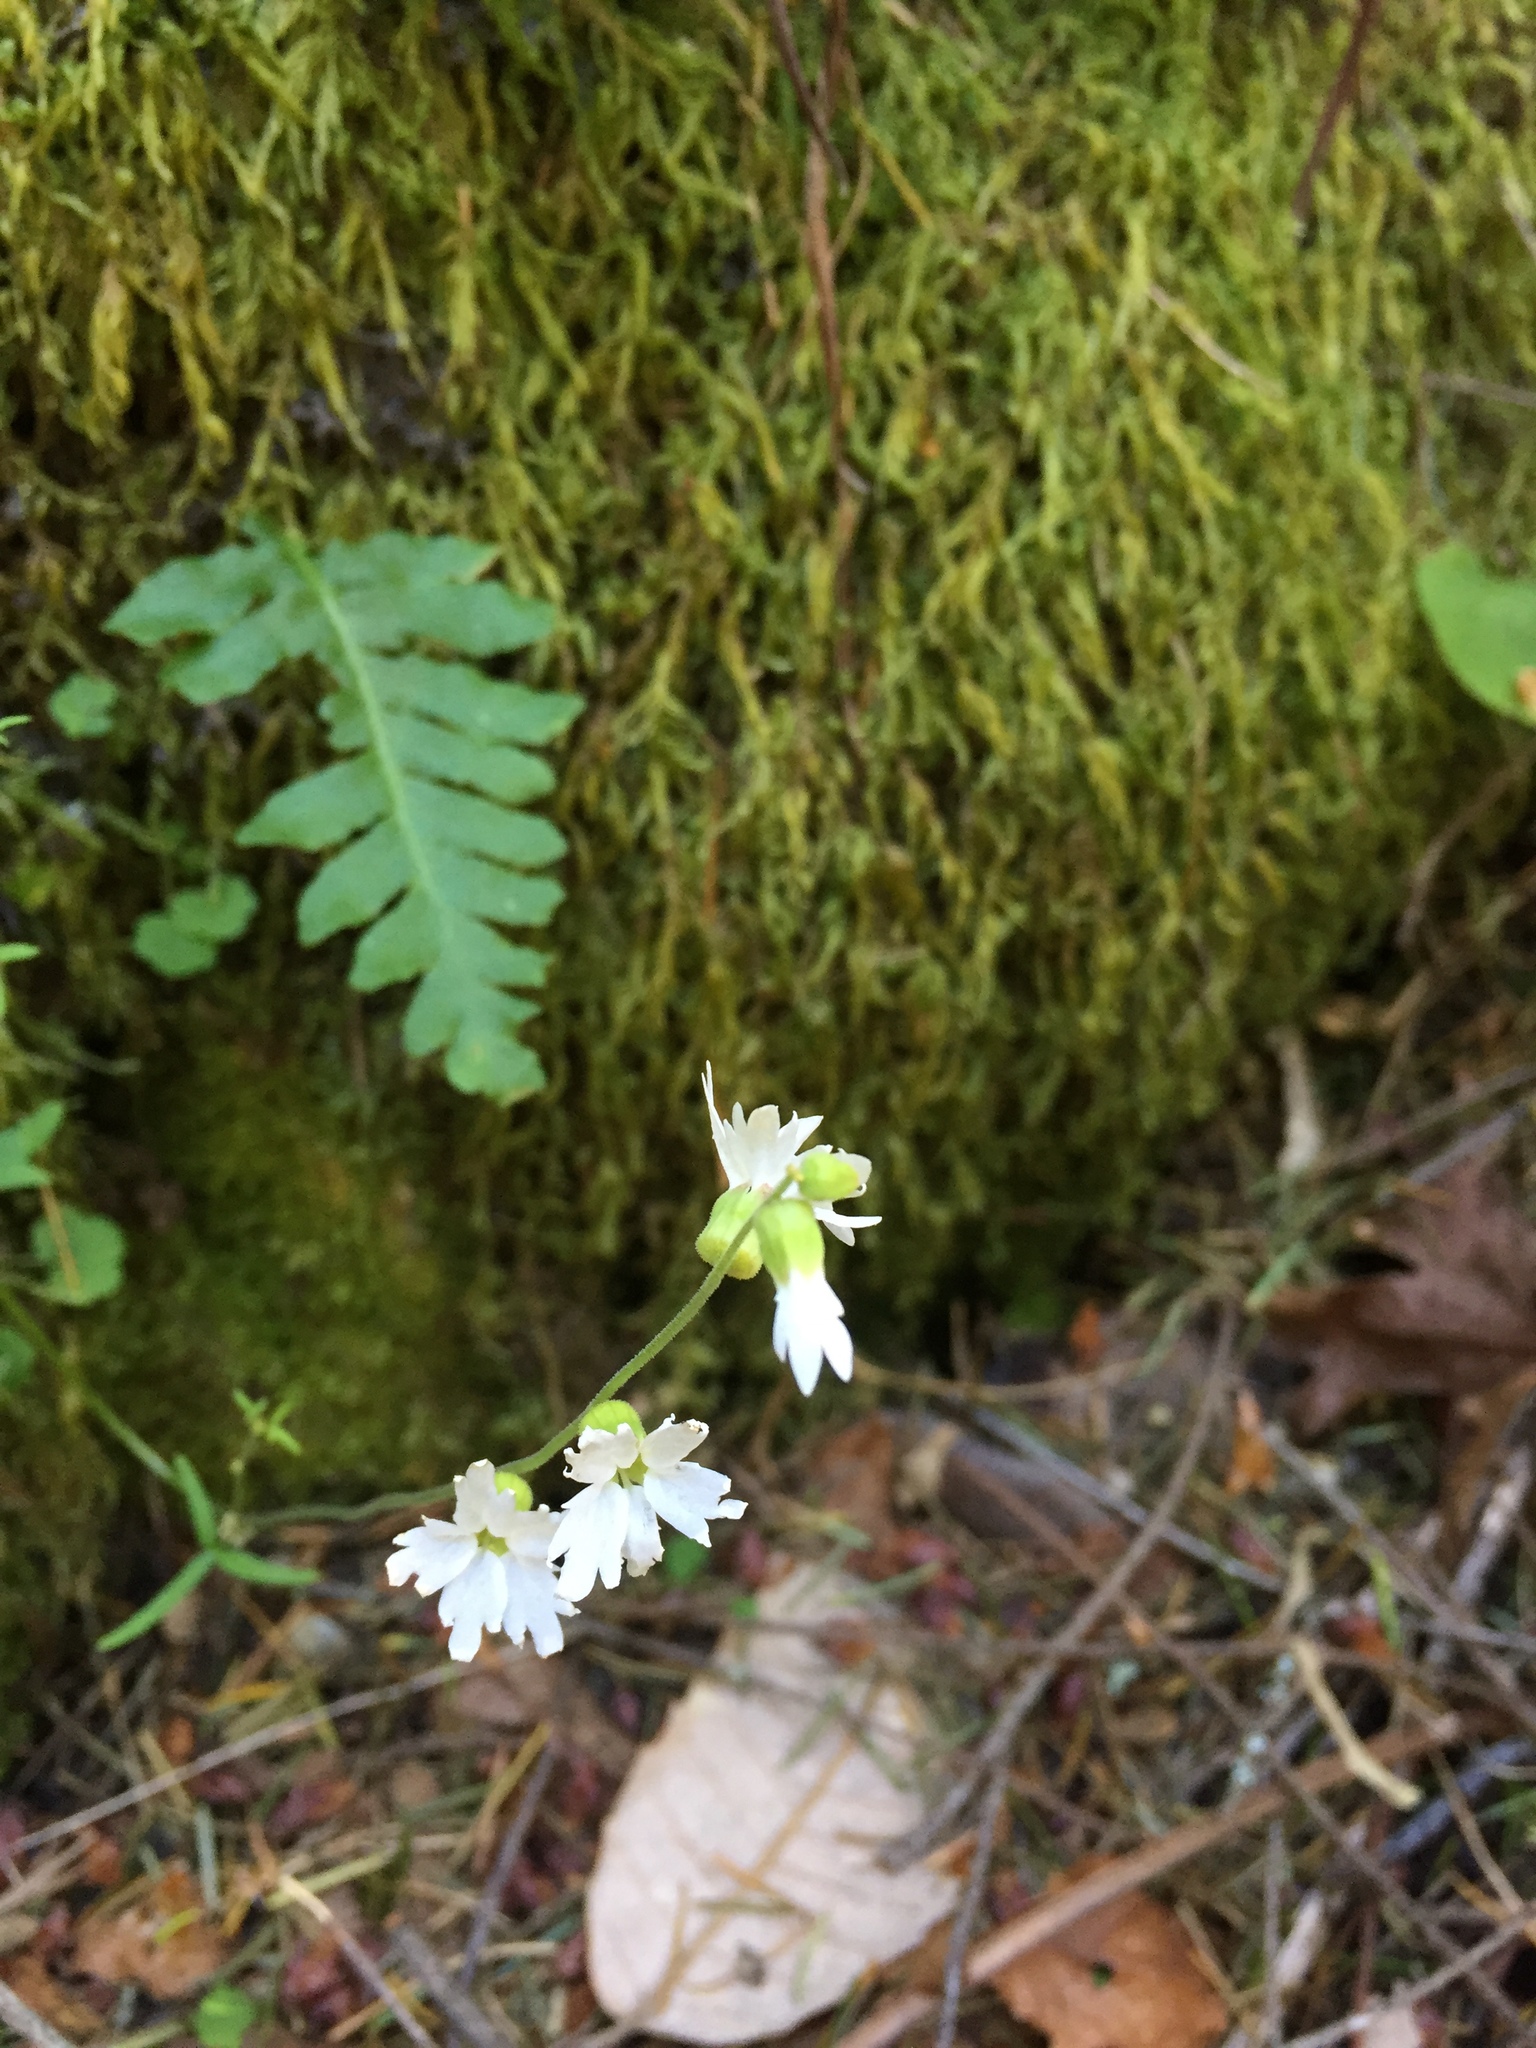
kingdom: Plantae
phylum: Tracheophyta
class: Magnoliopsida
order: Saxifragales
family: Saxifragaceae
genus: Lithophragma
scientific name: Lithophragma heterophyllum
